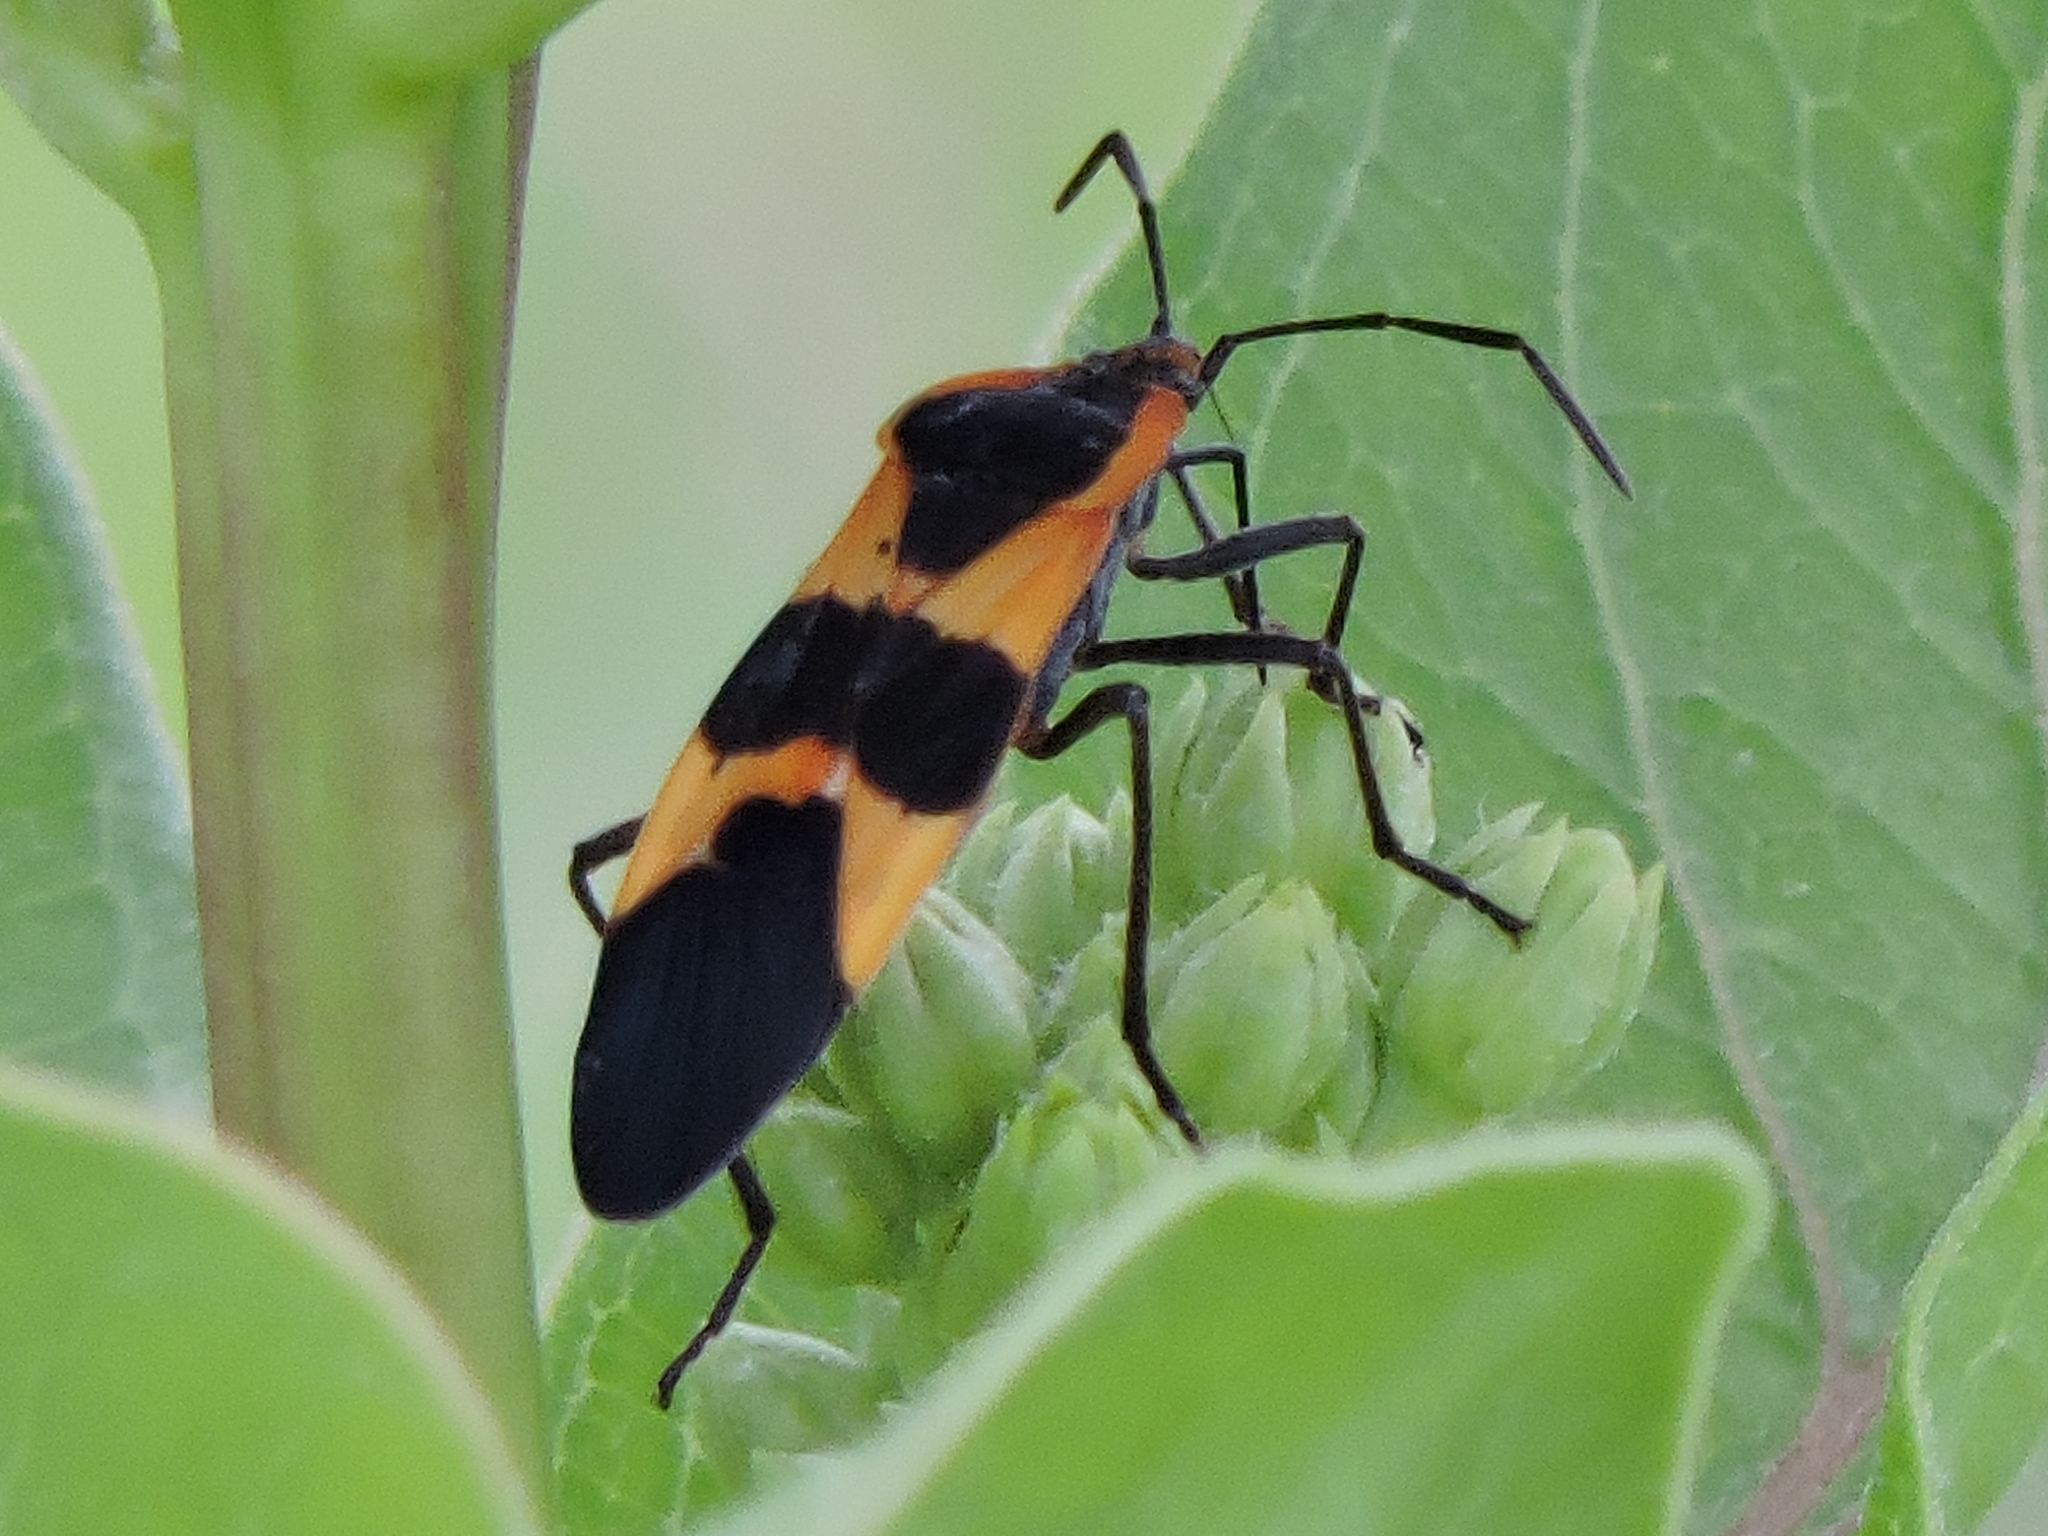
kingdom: Animalia
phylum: Arthropoda
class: Insecta
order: Hemiptera
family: Lygaeidae
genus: Oncopeltus
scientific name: Oncopeltus fasciatus
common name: Large milkweed bug
